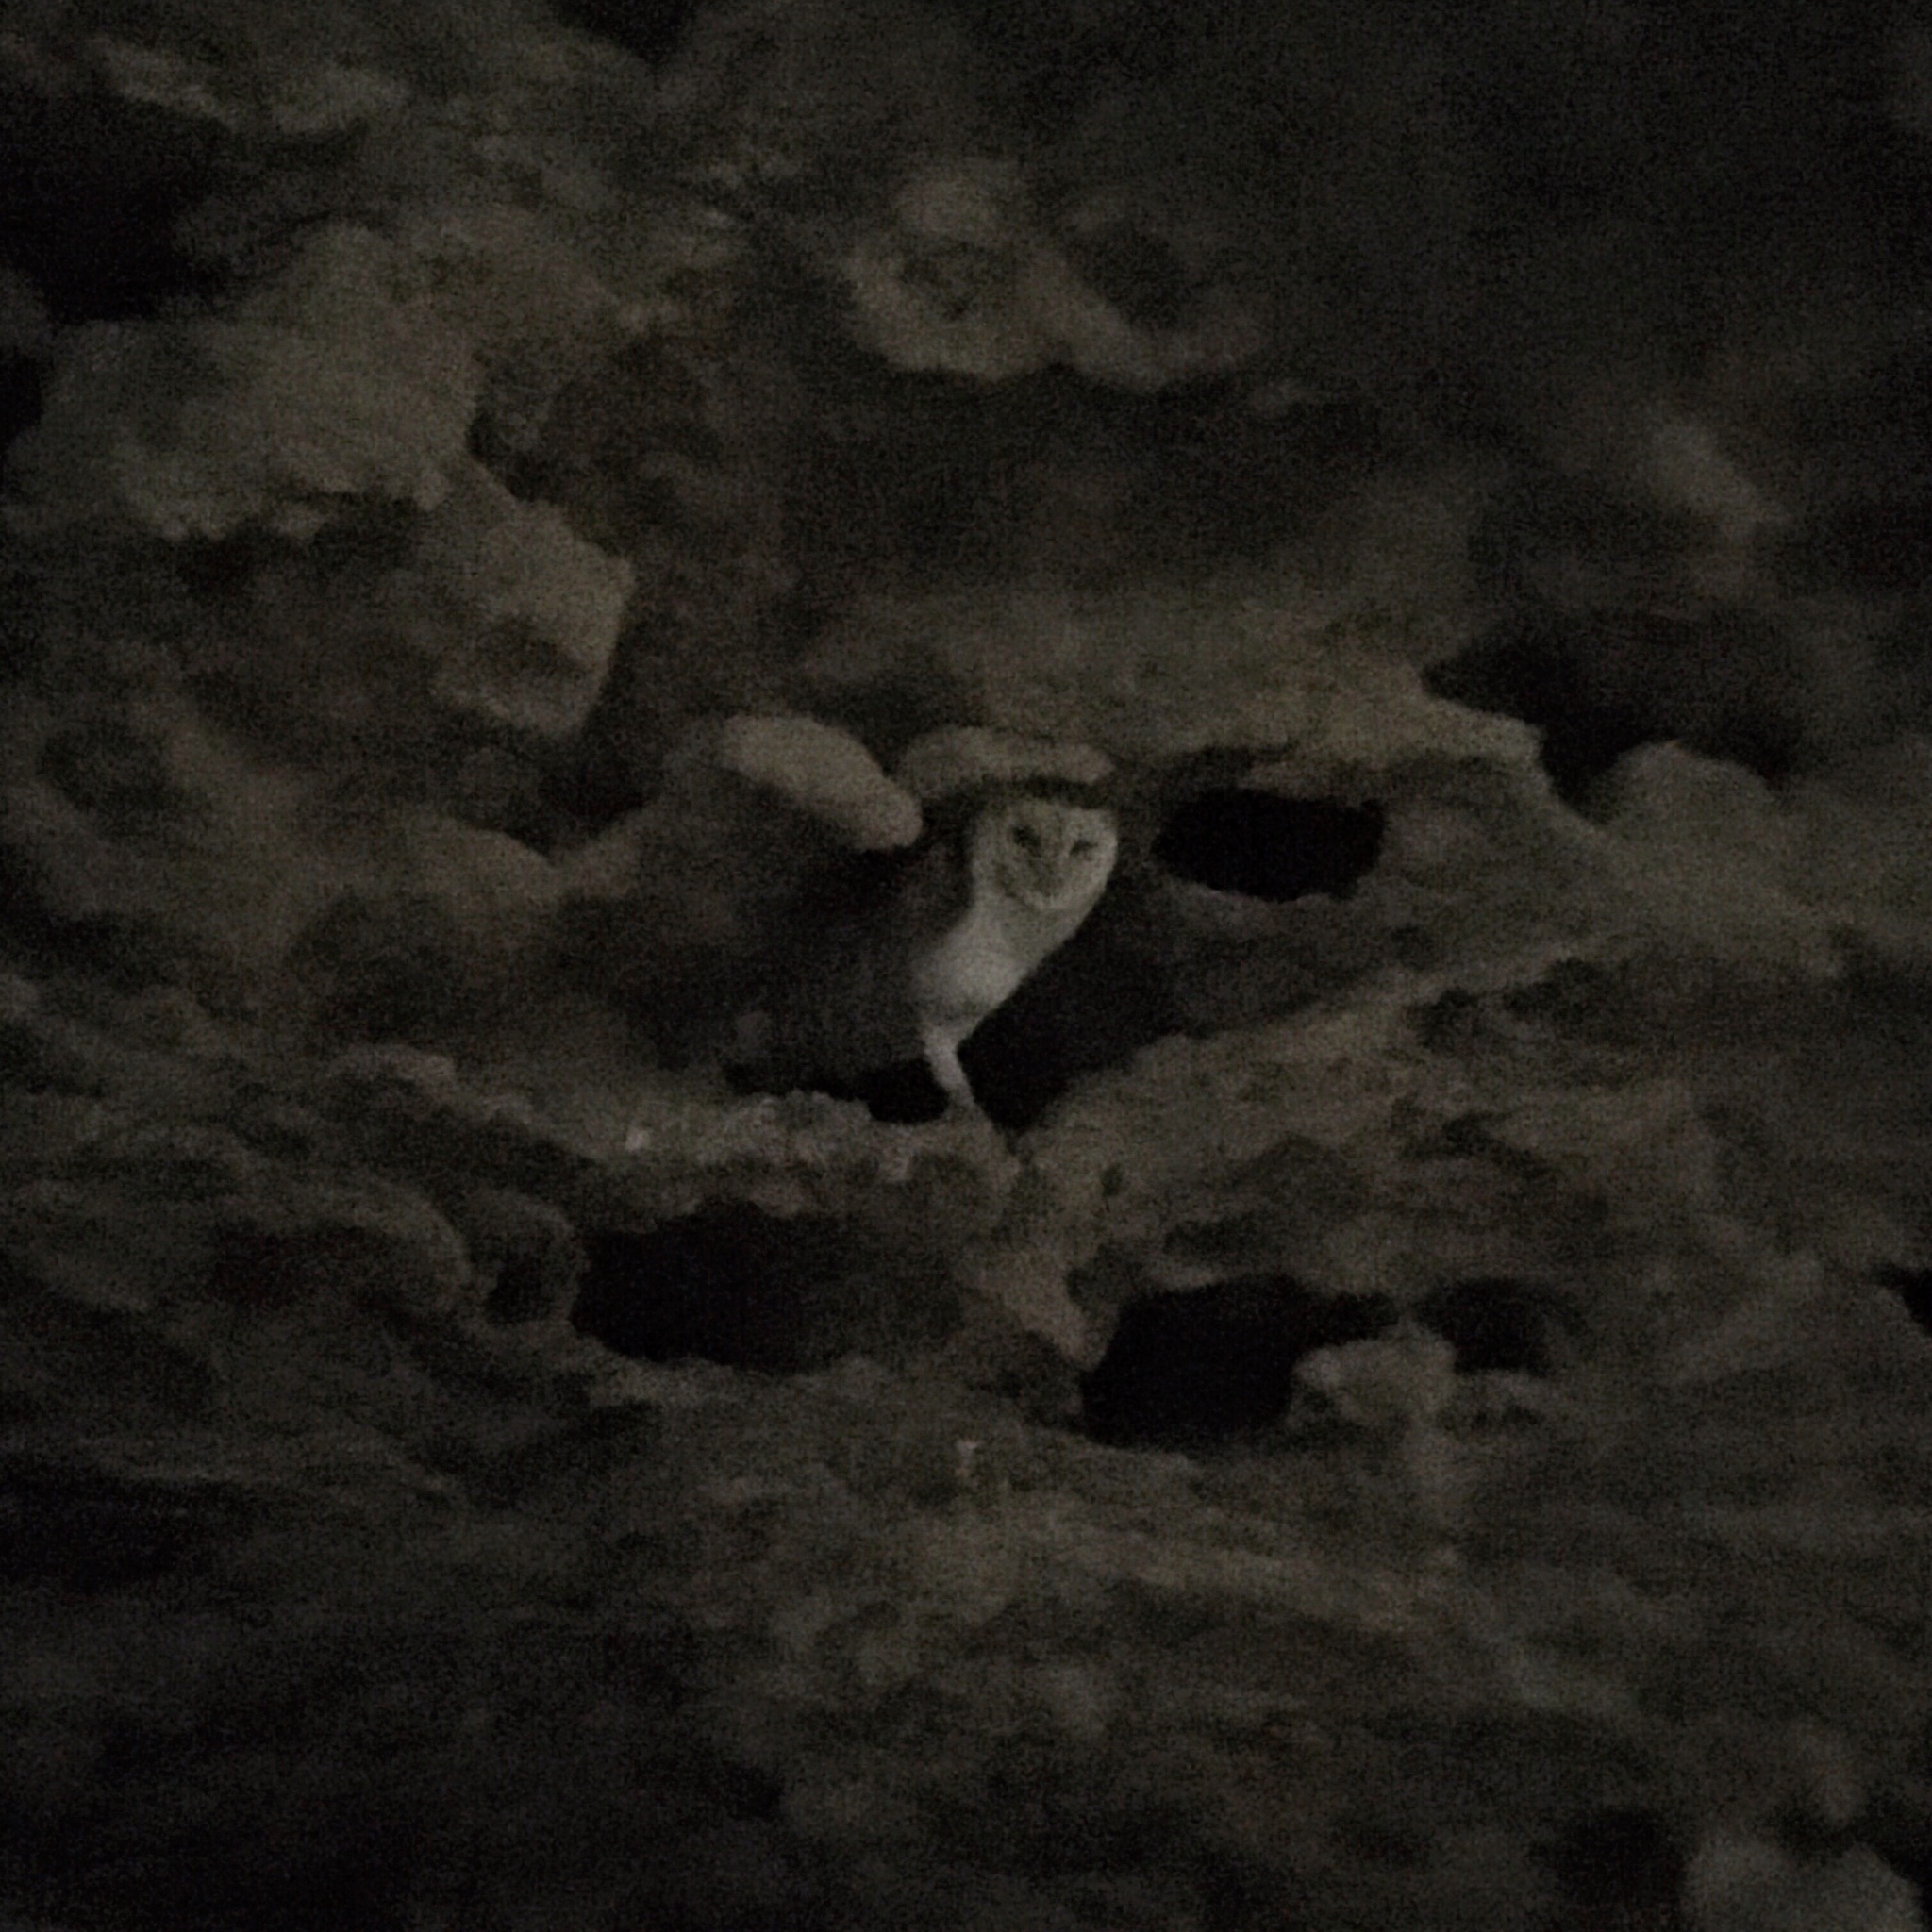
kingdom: Animalia
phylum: Chordata
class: Aves
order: Strigiformes
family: Tytonidae
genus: Tyto
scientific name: Tyto alba
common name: Barn owl
